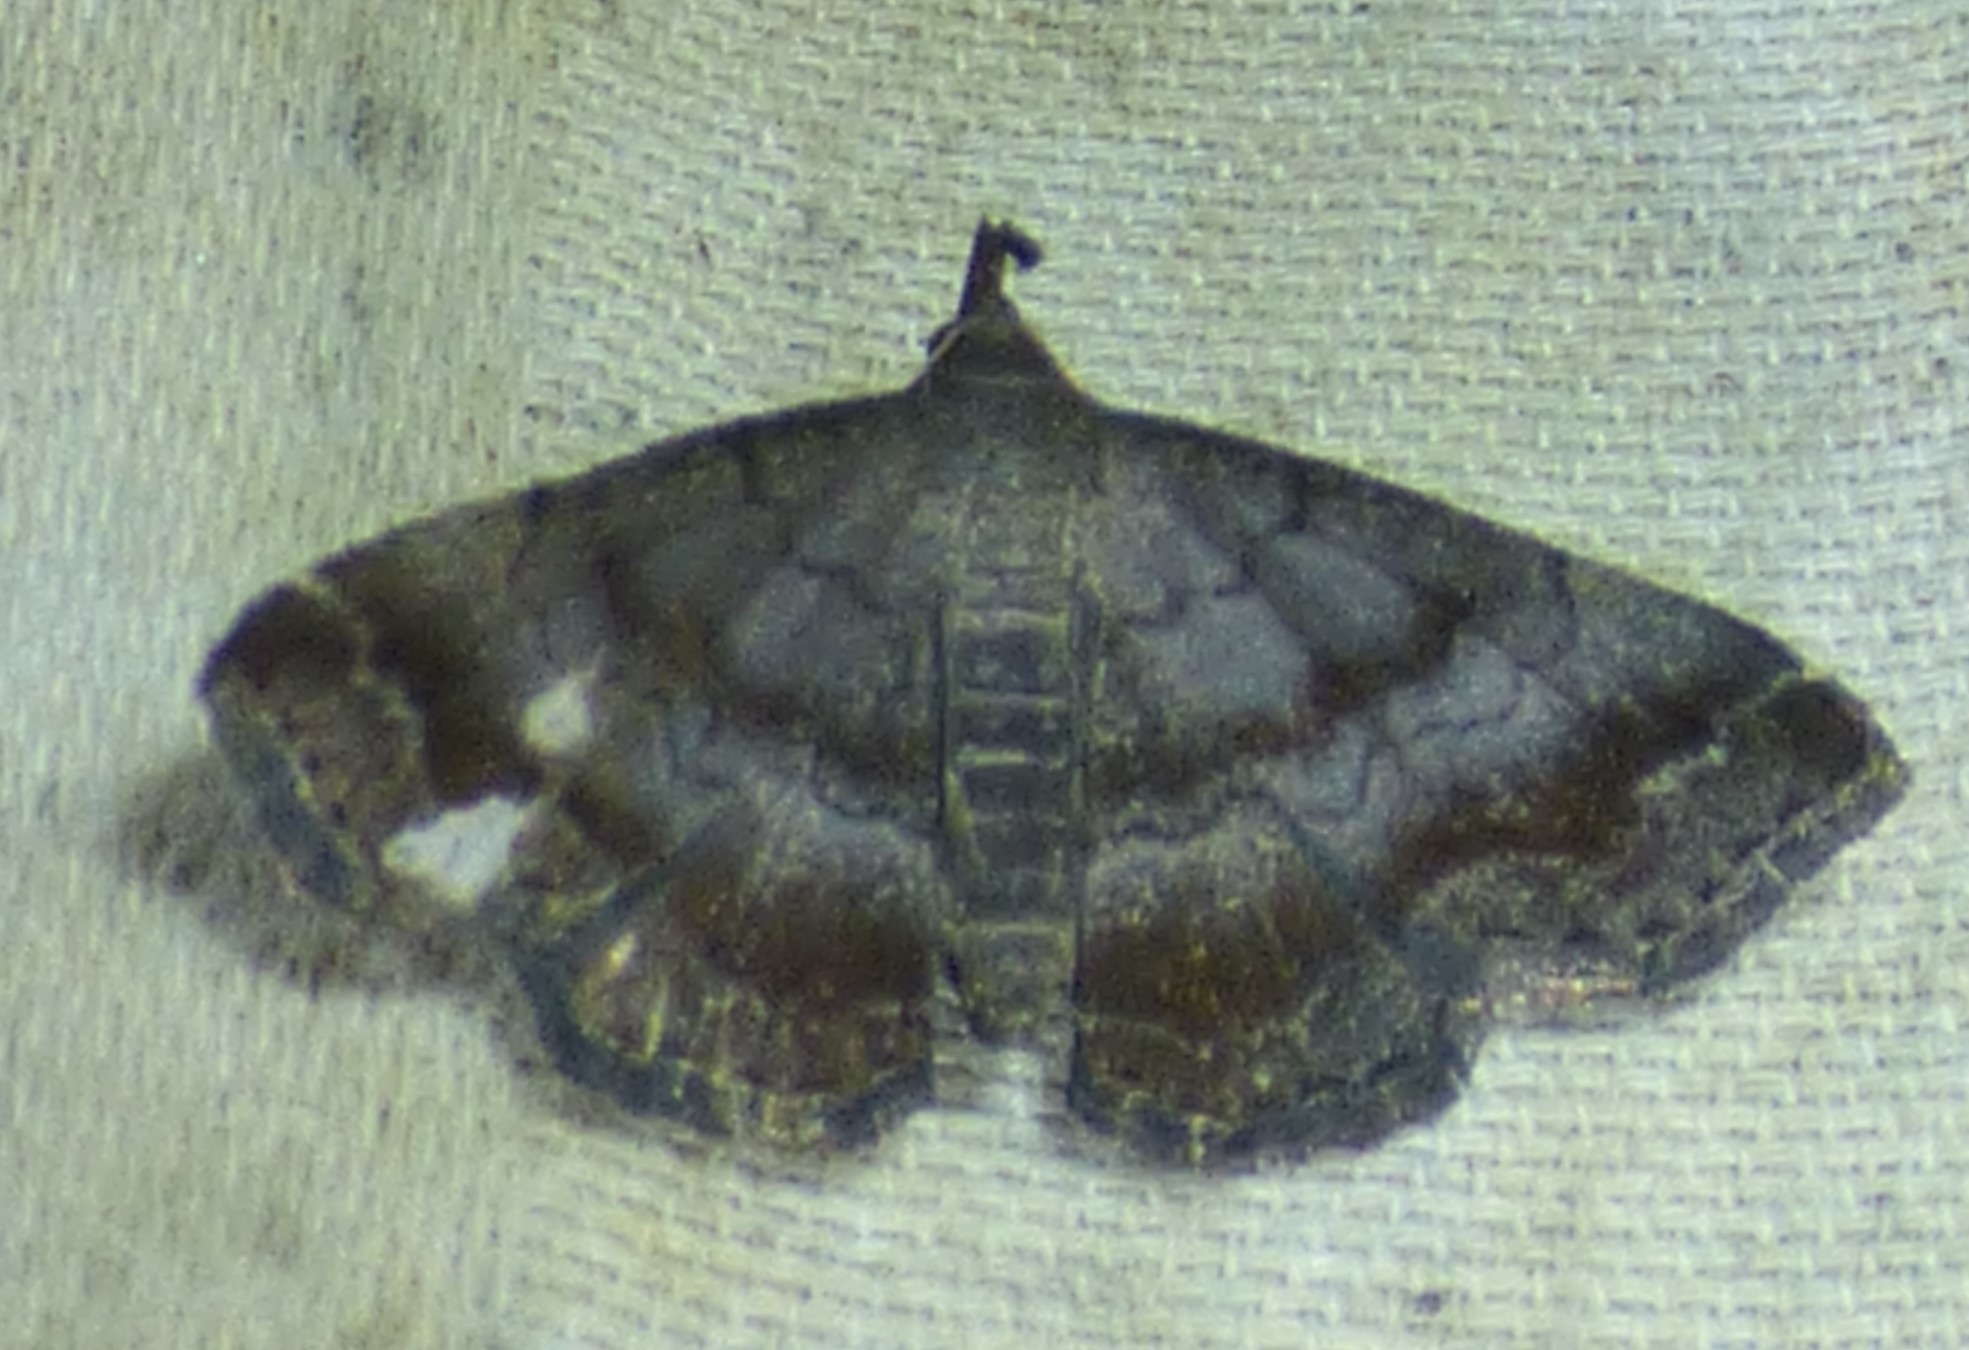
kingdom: Animalia
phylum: Arthropoda
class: Insecta
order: Lepidoptera
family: Erebidae
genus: Phalaenostola
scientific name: Phalaenostola larentioides
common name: Black-banded owlet
